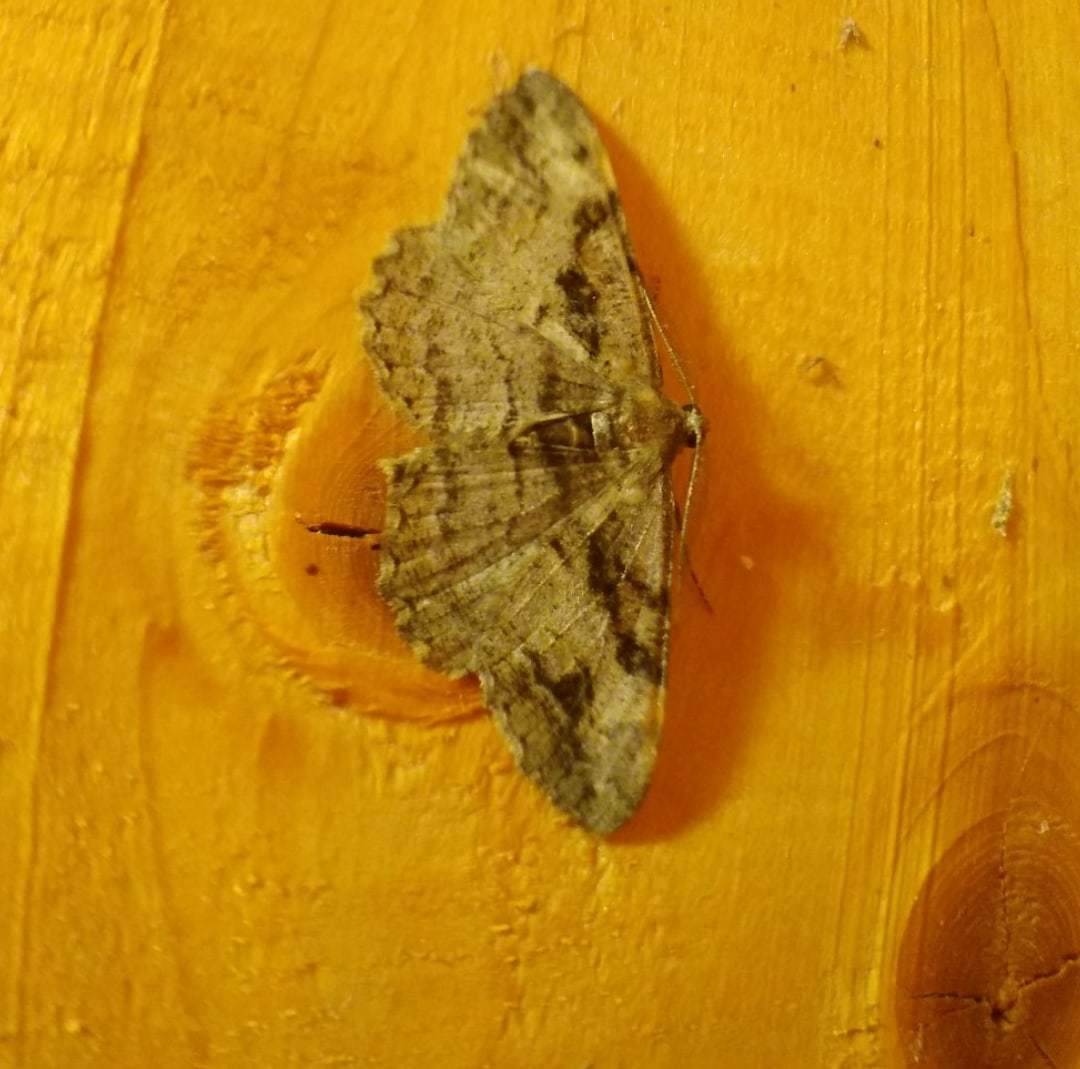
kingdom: Animalia
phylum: Arthropoda
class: Insecta
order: Lepidoptera
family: Geometridae
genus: Alcis
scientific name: Alcis deversata
